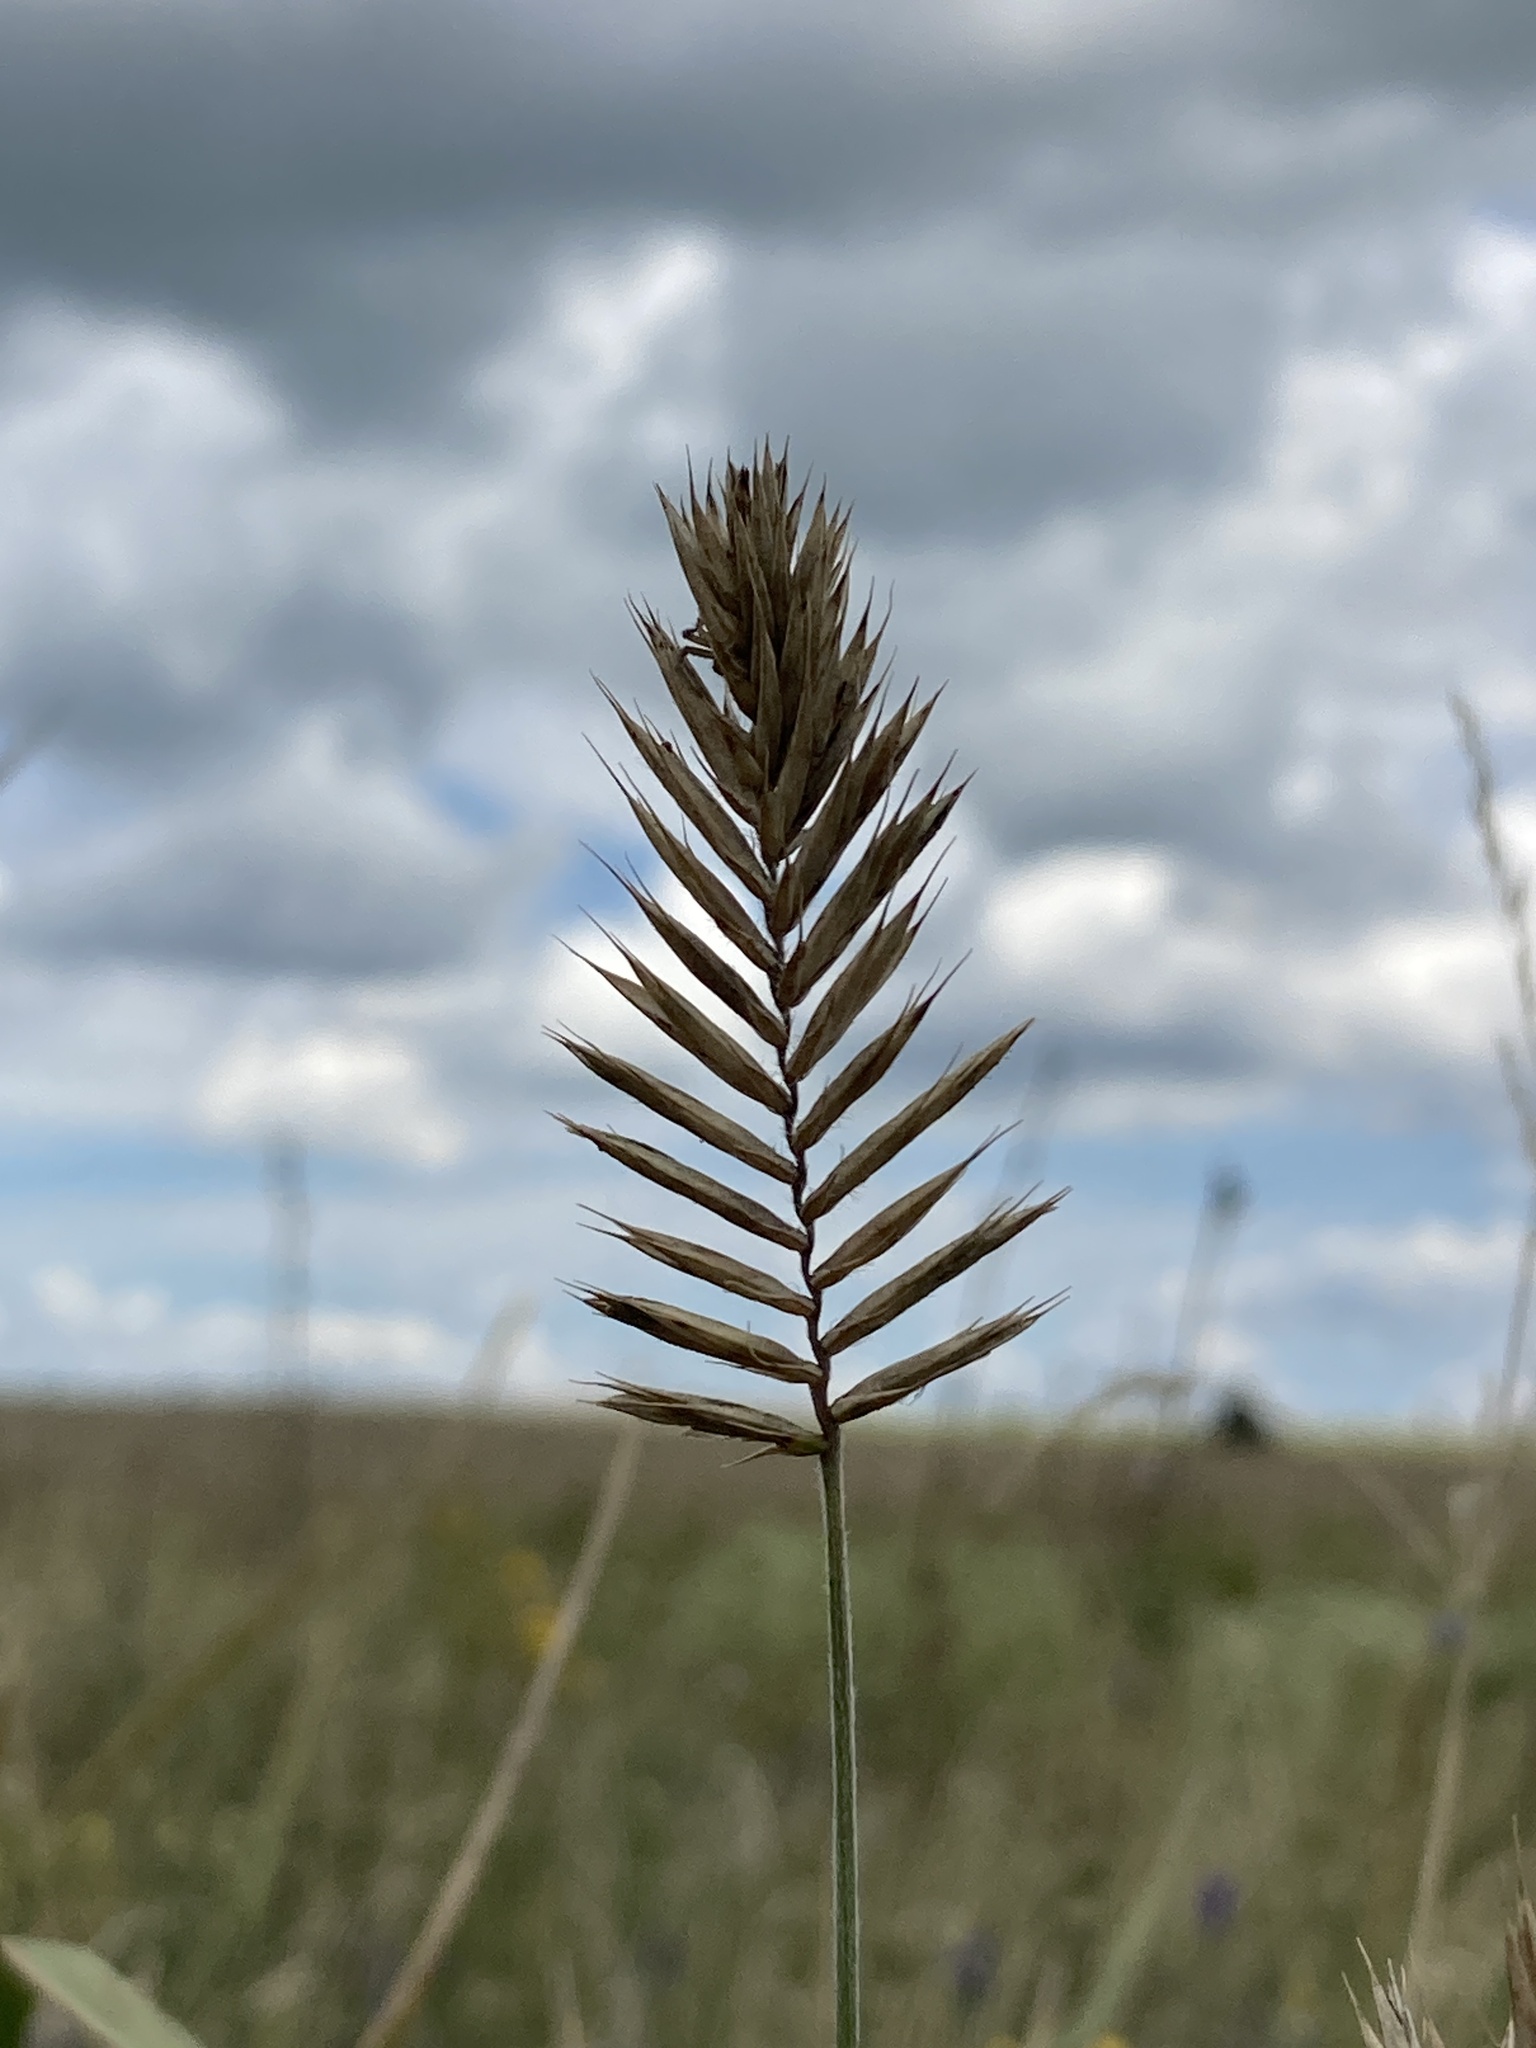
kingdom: Plantae
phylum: Tracheophyta
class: Liliopsida
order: Poales
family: Poaceae
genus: Agropyron
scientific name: Agropyron cristatum
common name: Crested wheatgrass
